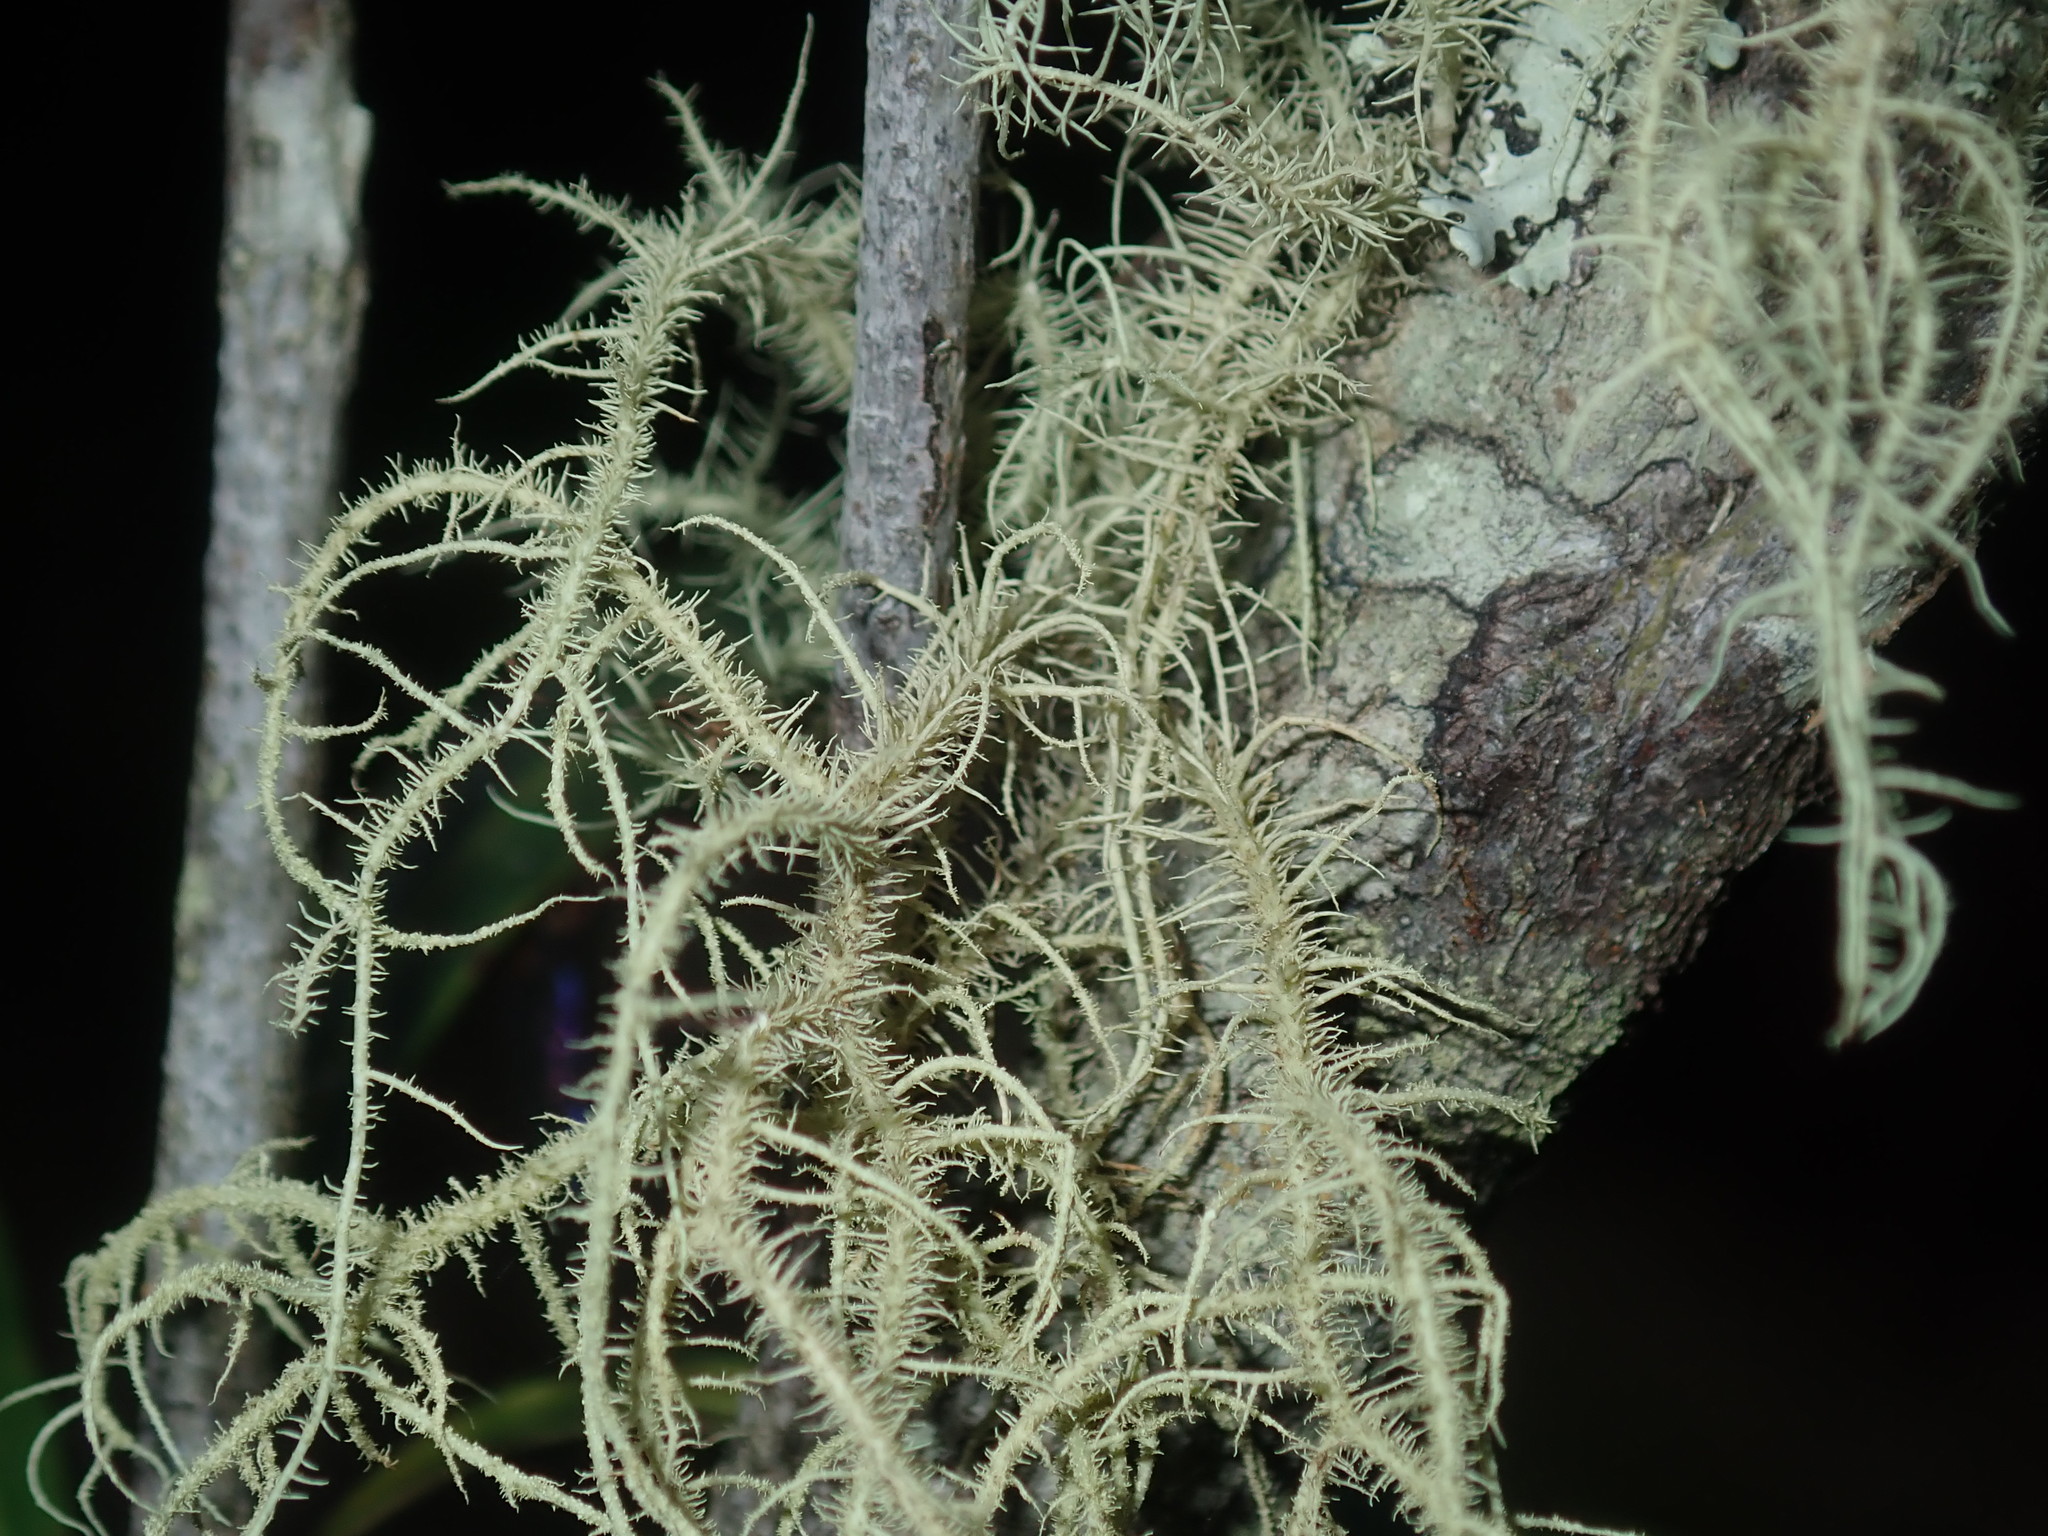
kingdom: Fungi
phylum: Ascomycota
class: Lecanoromycetes
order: Lecanorales
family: Parmeliaceae
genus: Usnea
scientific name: Usnea hirta
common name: Bristly beard lichen
